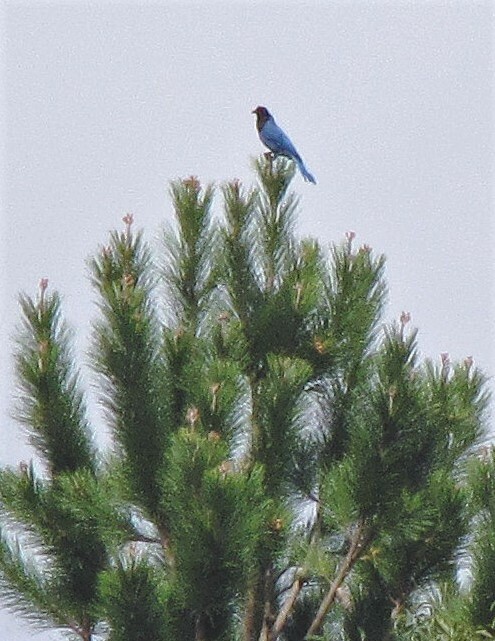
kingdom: Animalia
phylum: Chordata
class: Aves
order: Passeriformes
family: Corvidae
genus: Cyanocorax
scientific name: Cyanocorax caeruleus
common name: Azure jay
